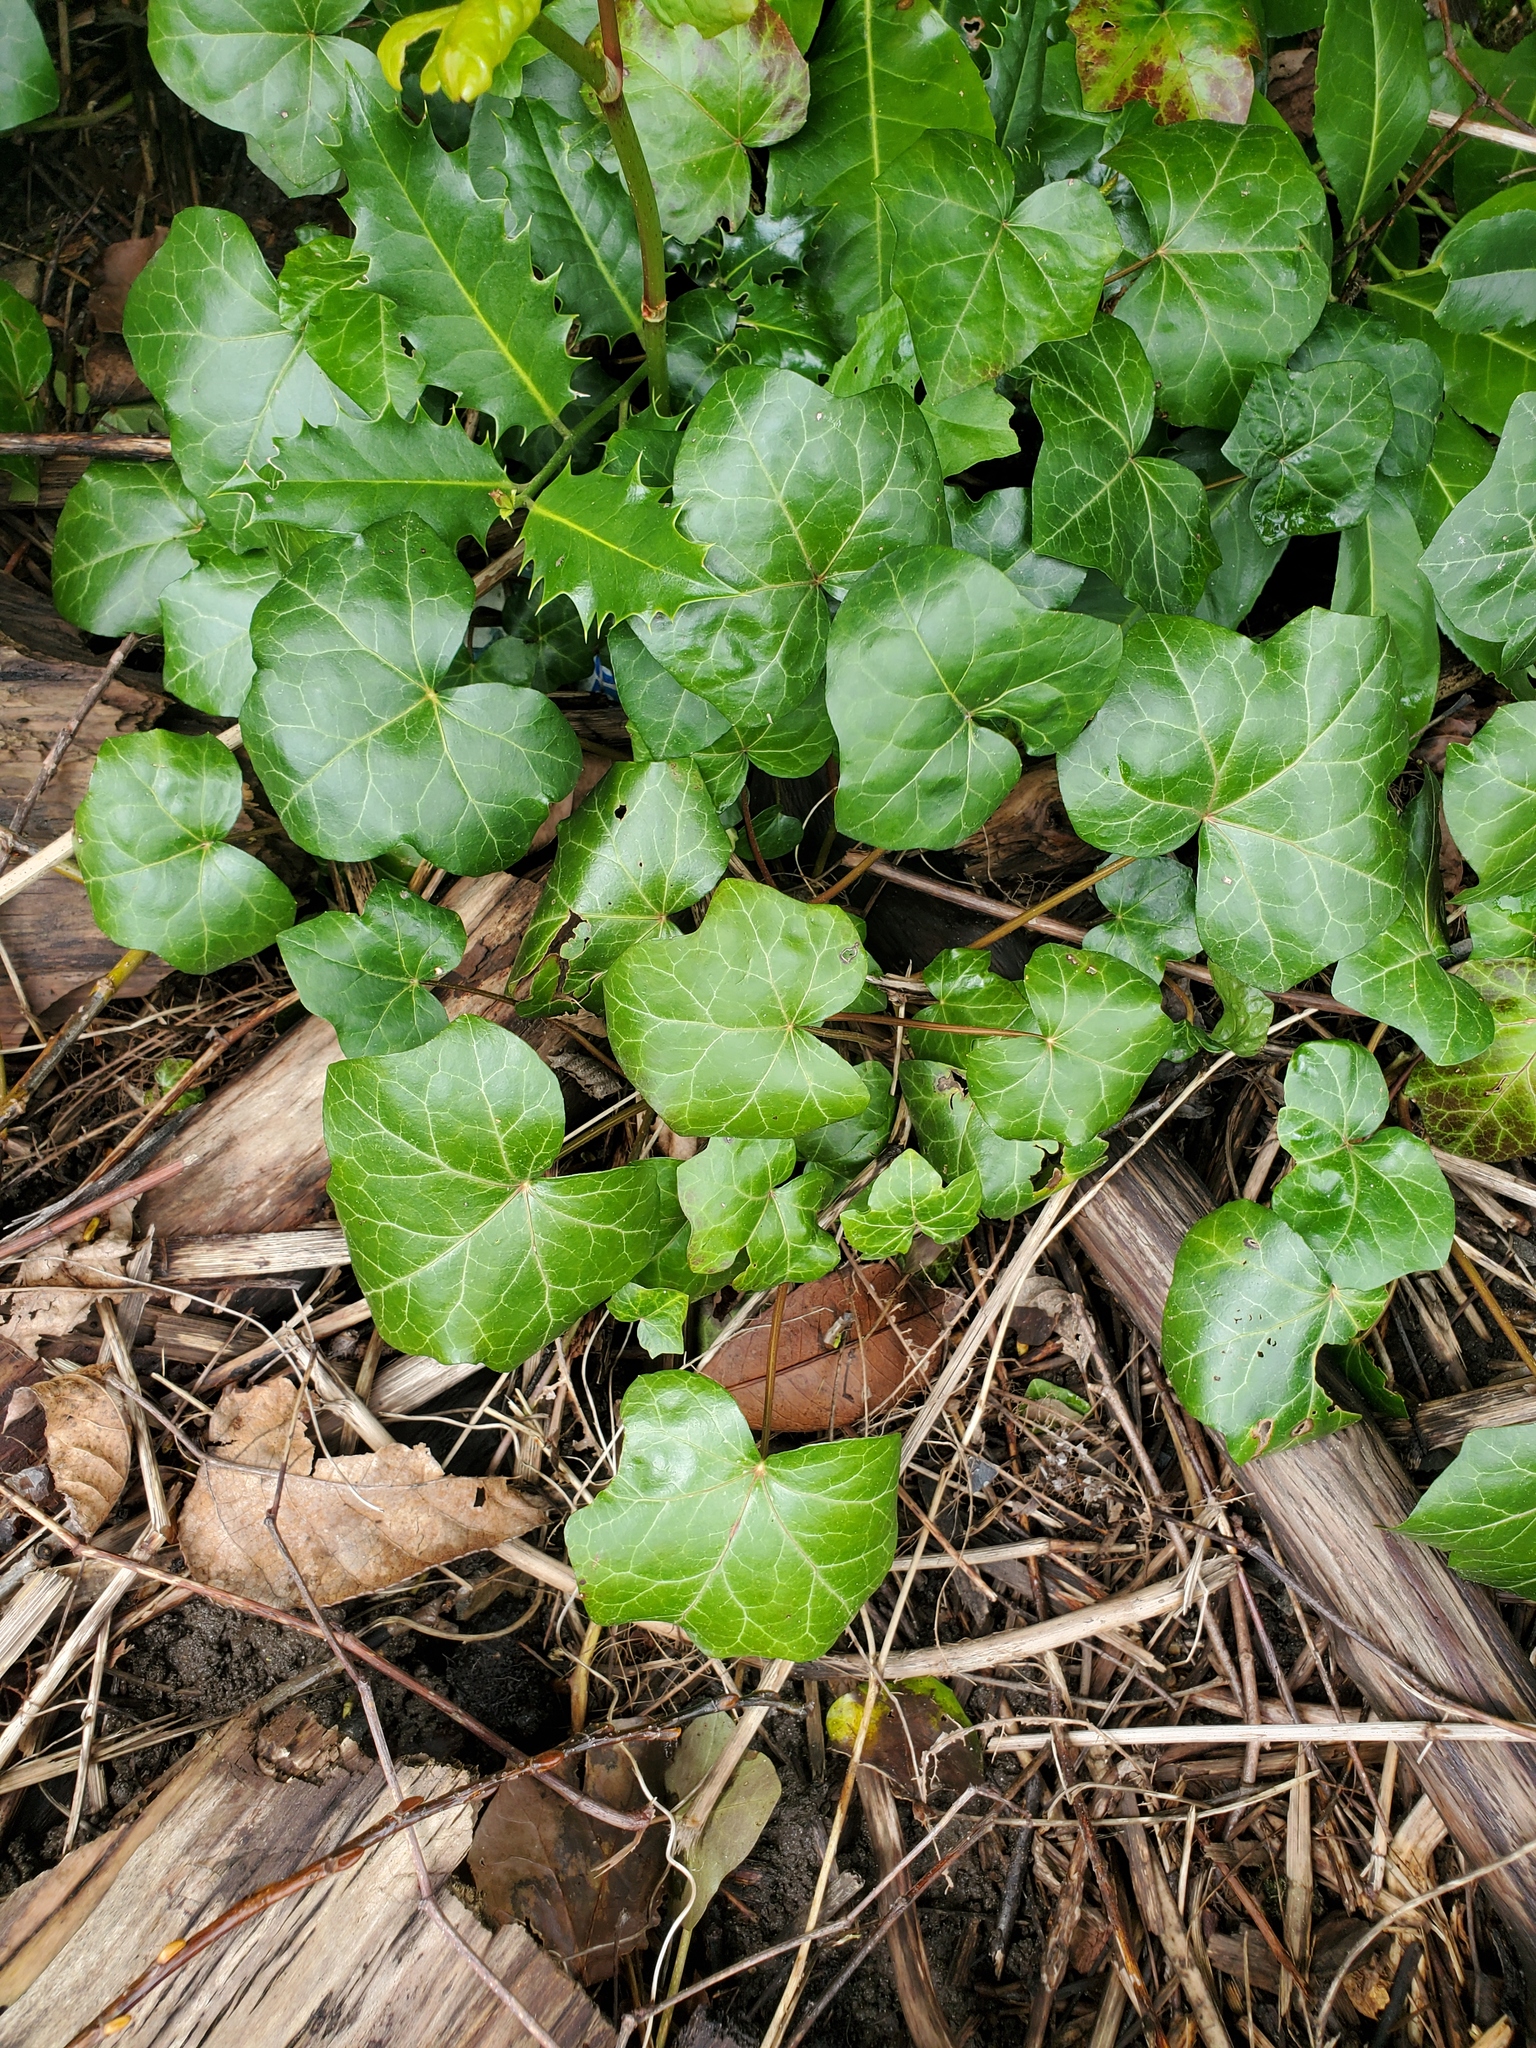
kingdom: Plantae
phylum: Tracheophyta
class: Magnoliopsida
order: Apiales
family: Araliaceae
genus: Hedera
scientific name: Hedera helix
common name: Ivy
